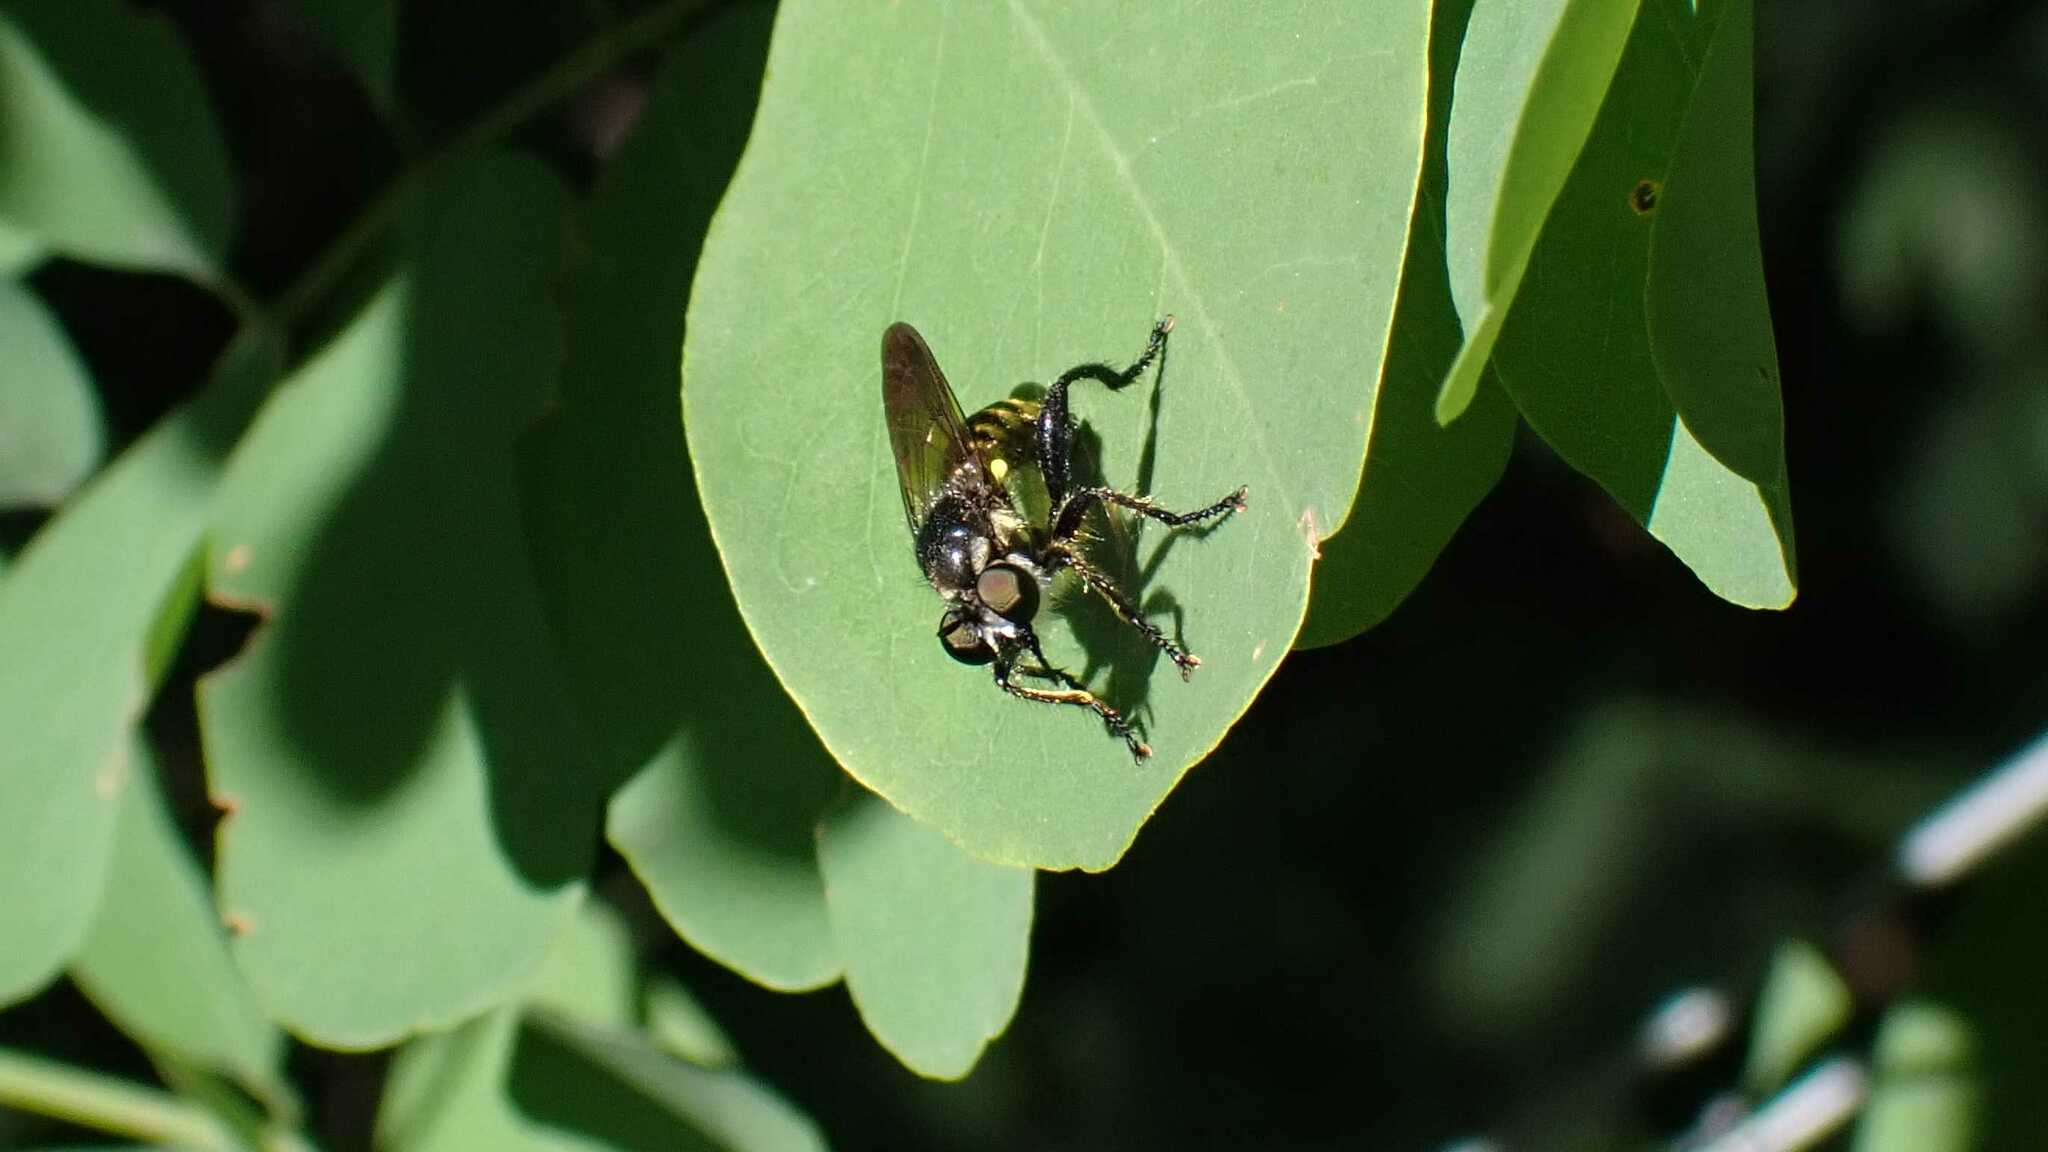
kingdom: Animalia
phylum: Arthropoda
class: Insecta
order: Diptera
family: Asilidae
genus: Lamyra
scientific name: Lamyra fimbriata
